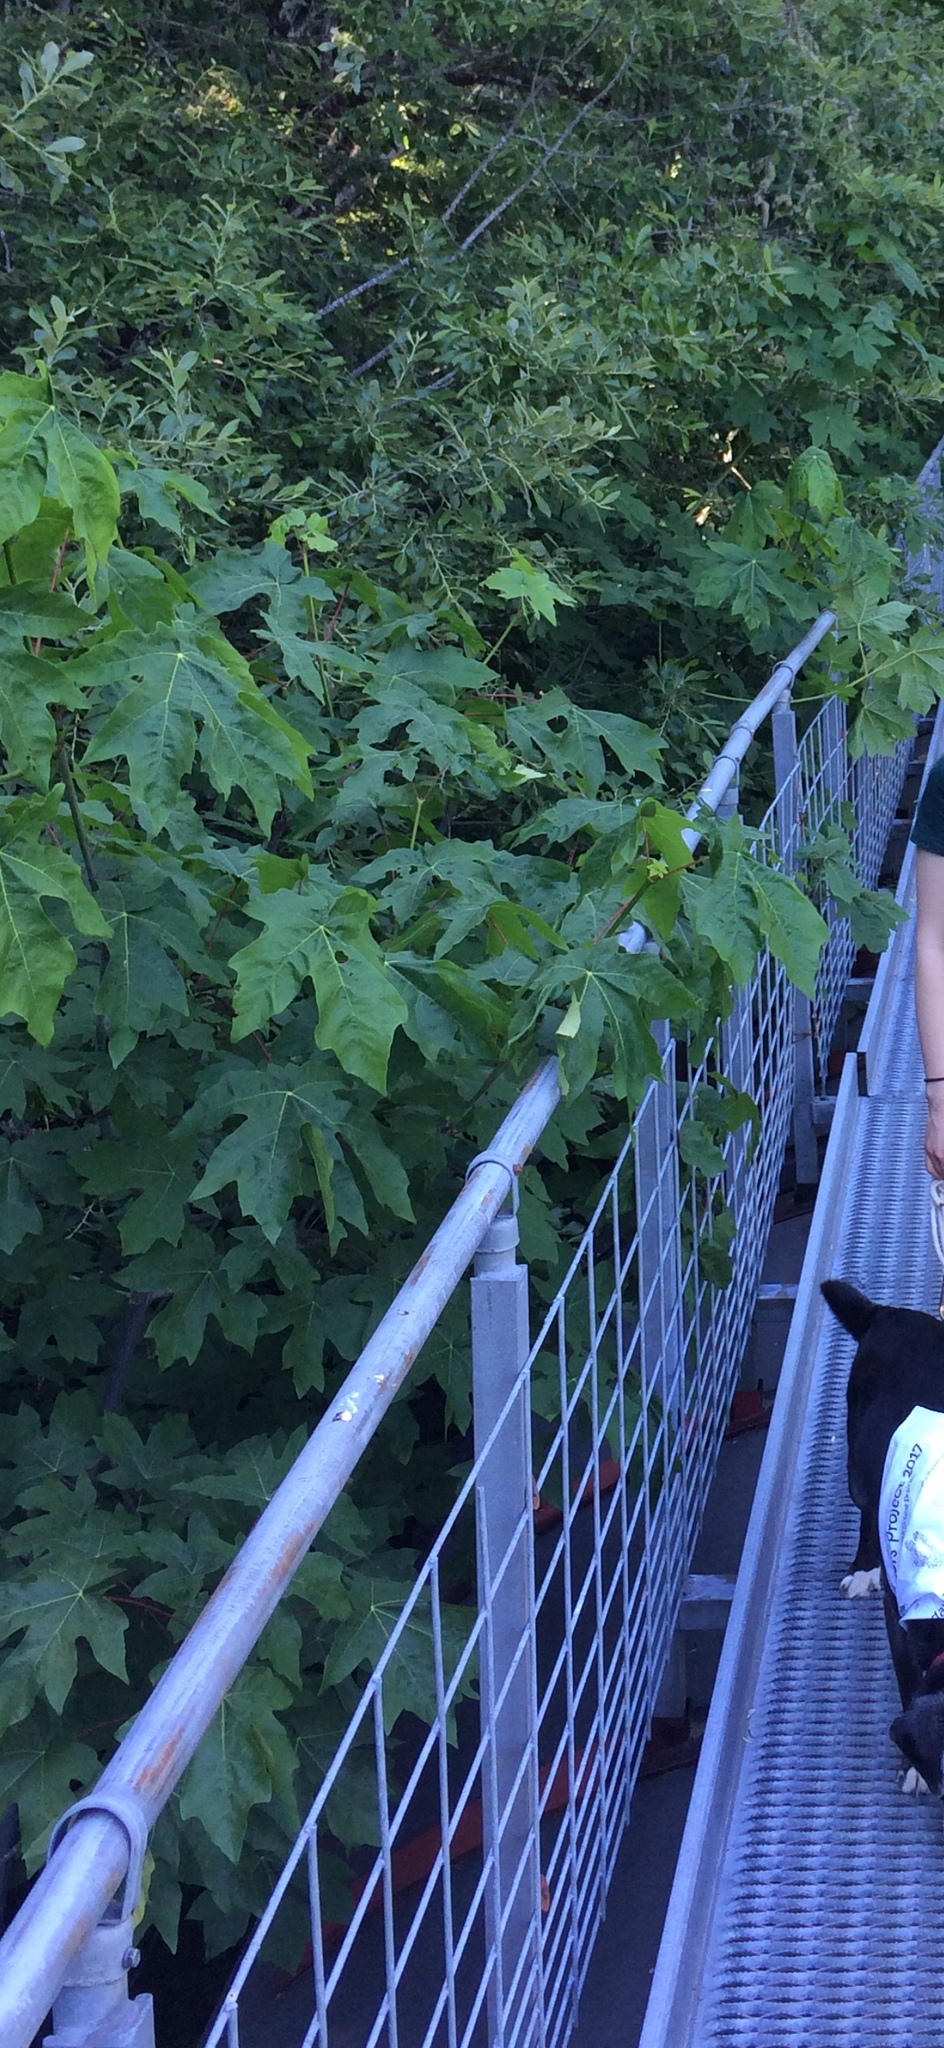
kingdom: Plantae
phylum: Tracheophyta
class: Magnoliopsida
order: Sapindales
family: Sapindaceae
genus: Acer
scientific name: Acer macrophyllum
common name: Oregon maple
